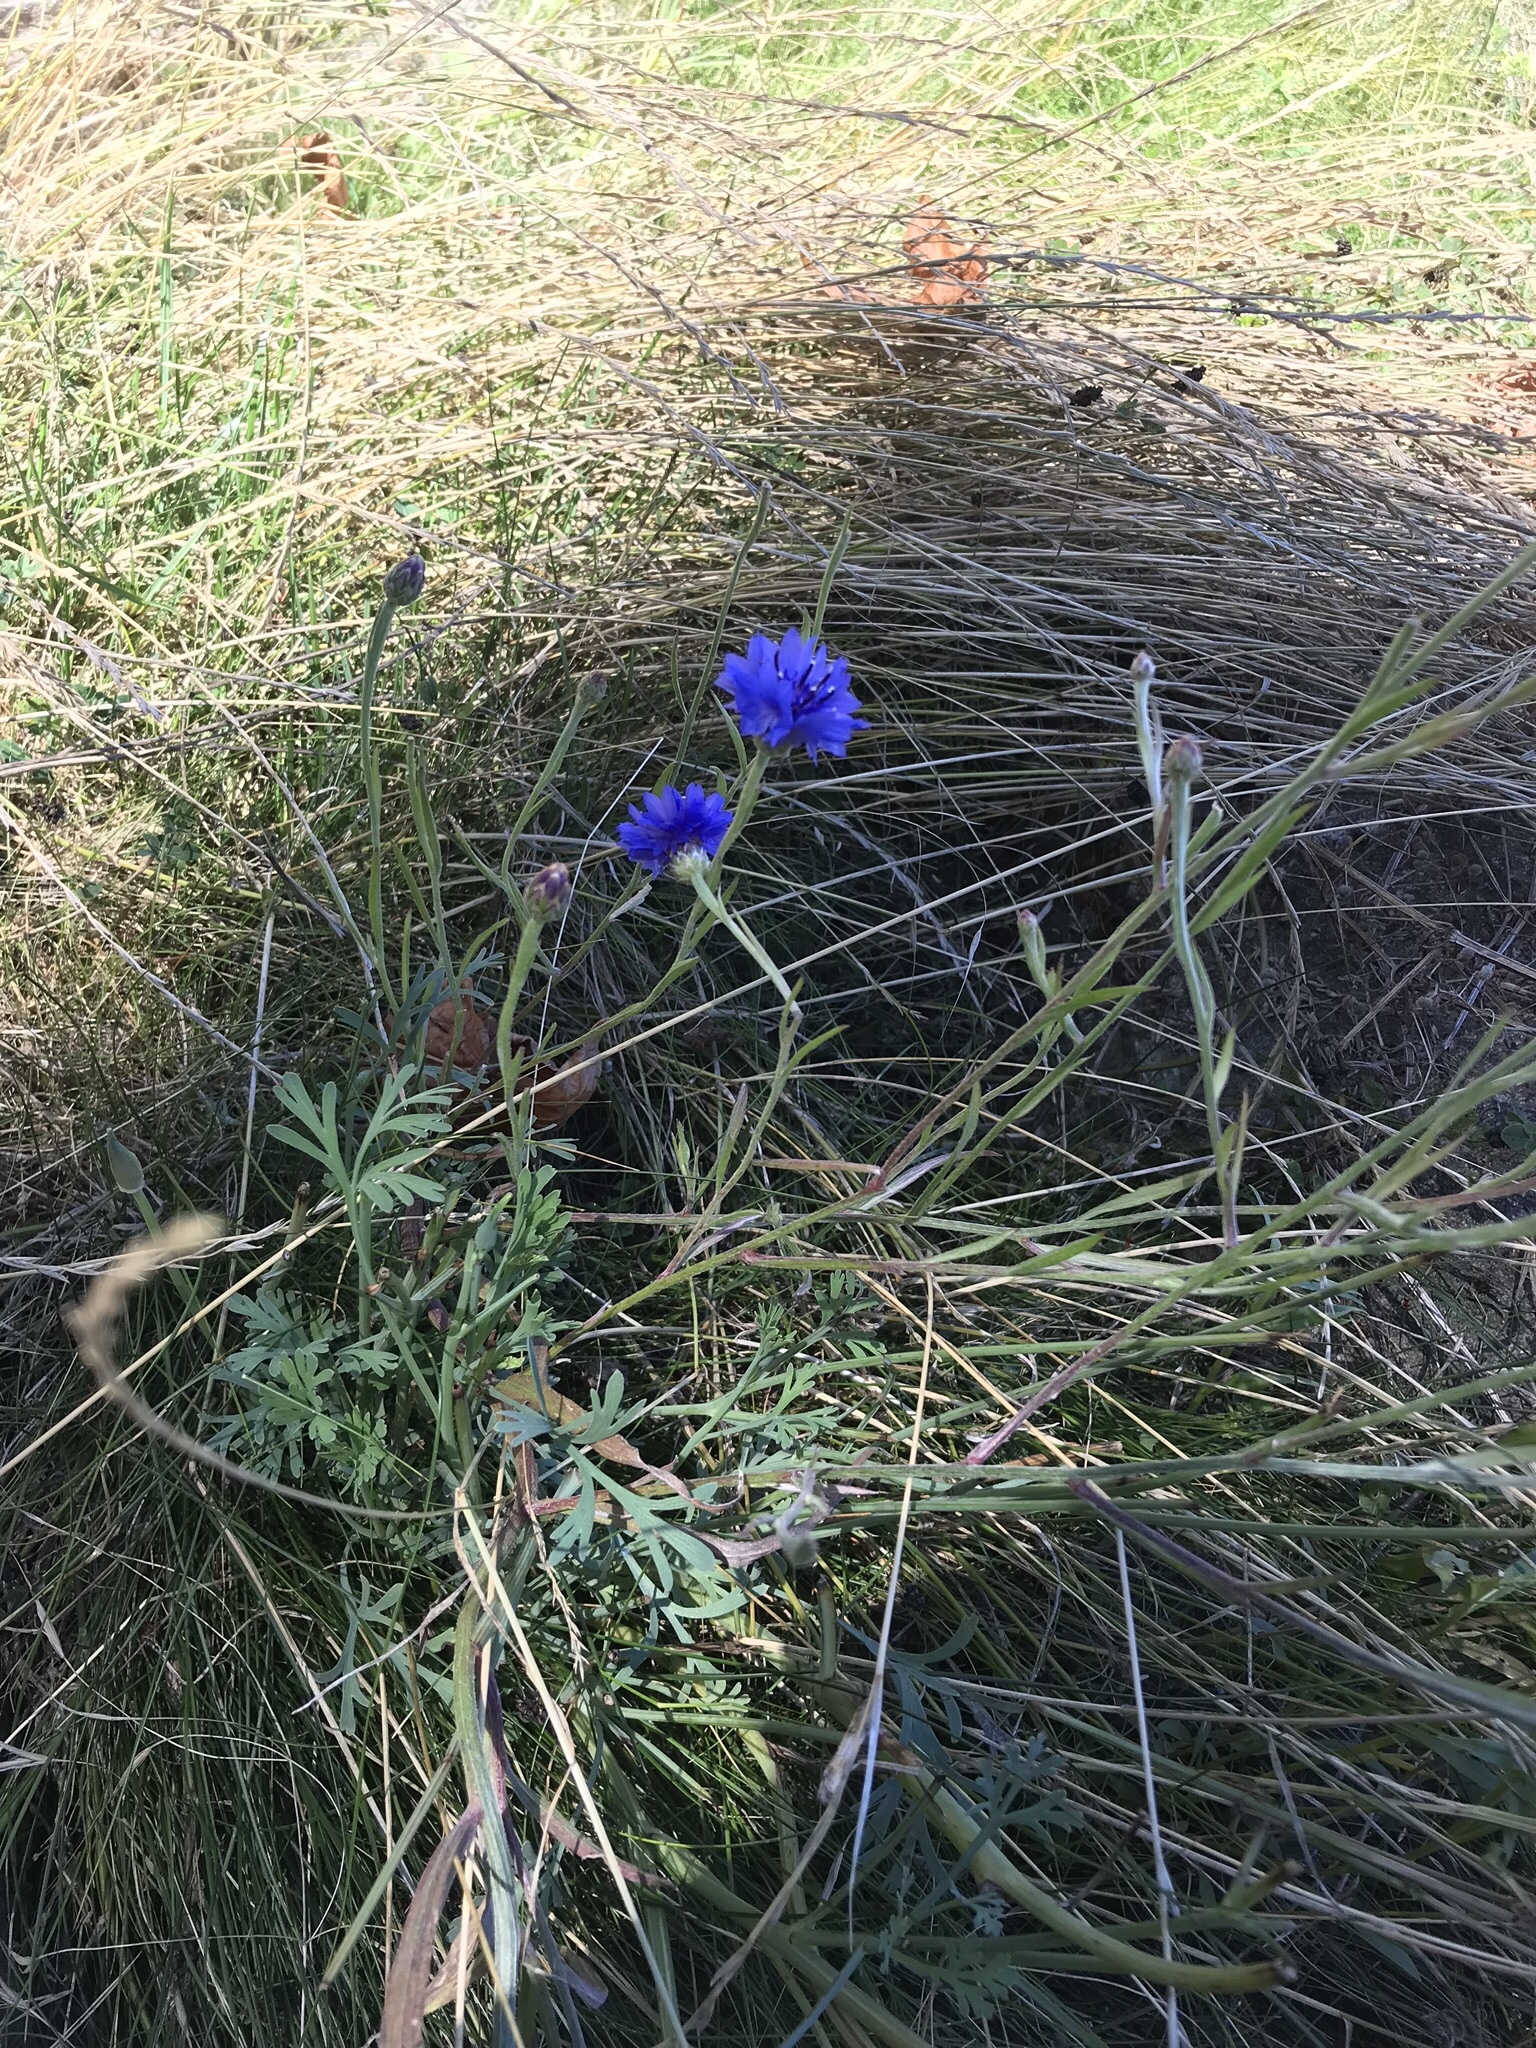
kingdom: Plantae
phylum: Tracheophyta
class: Magnoliopsida
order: Asterales
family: Asteraceae
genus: Centaurea
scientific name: Centaurea cyanus
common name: Cornflower
